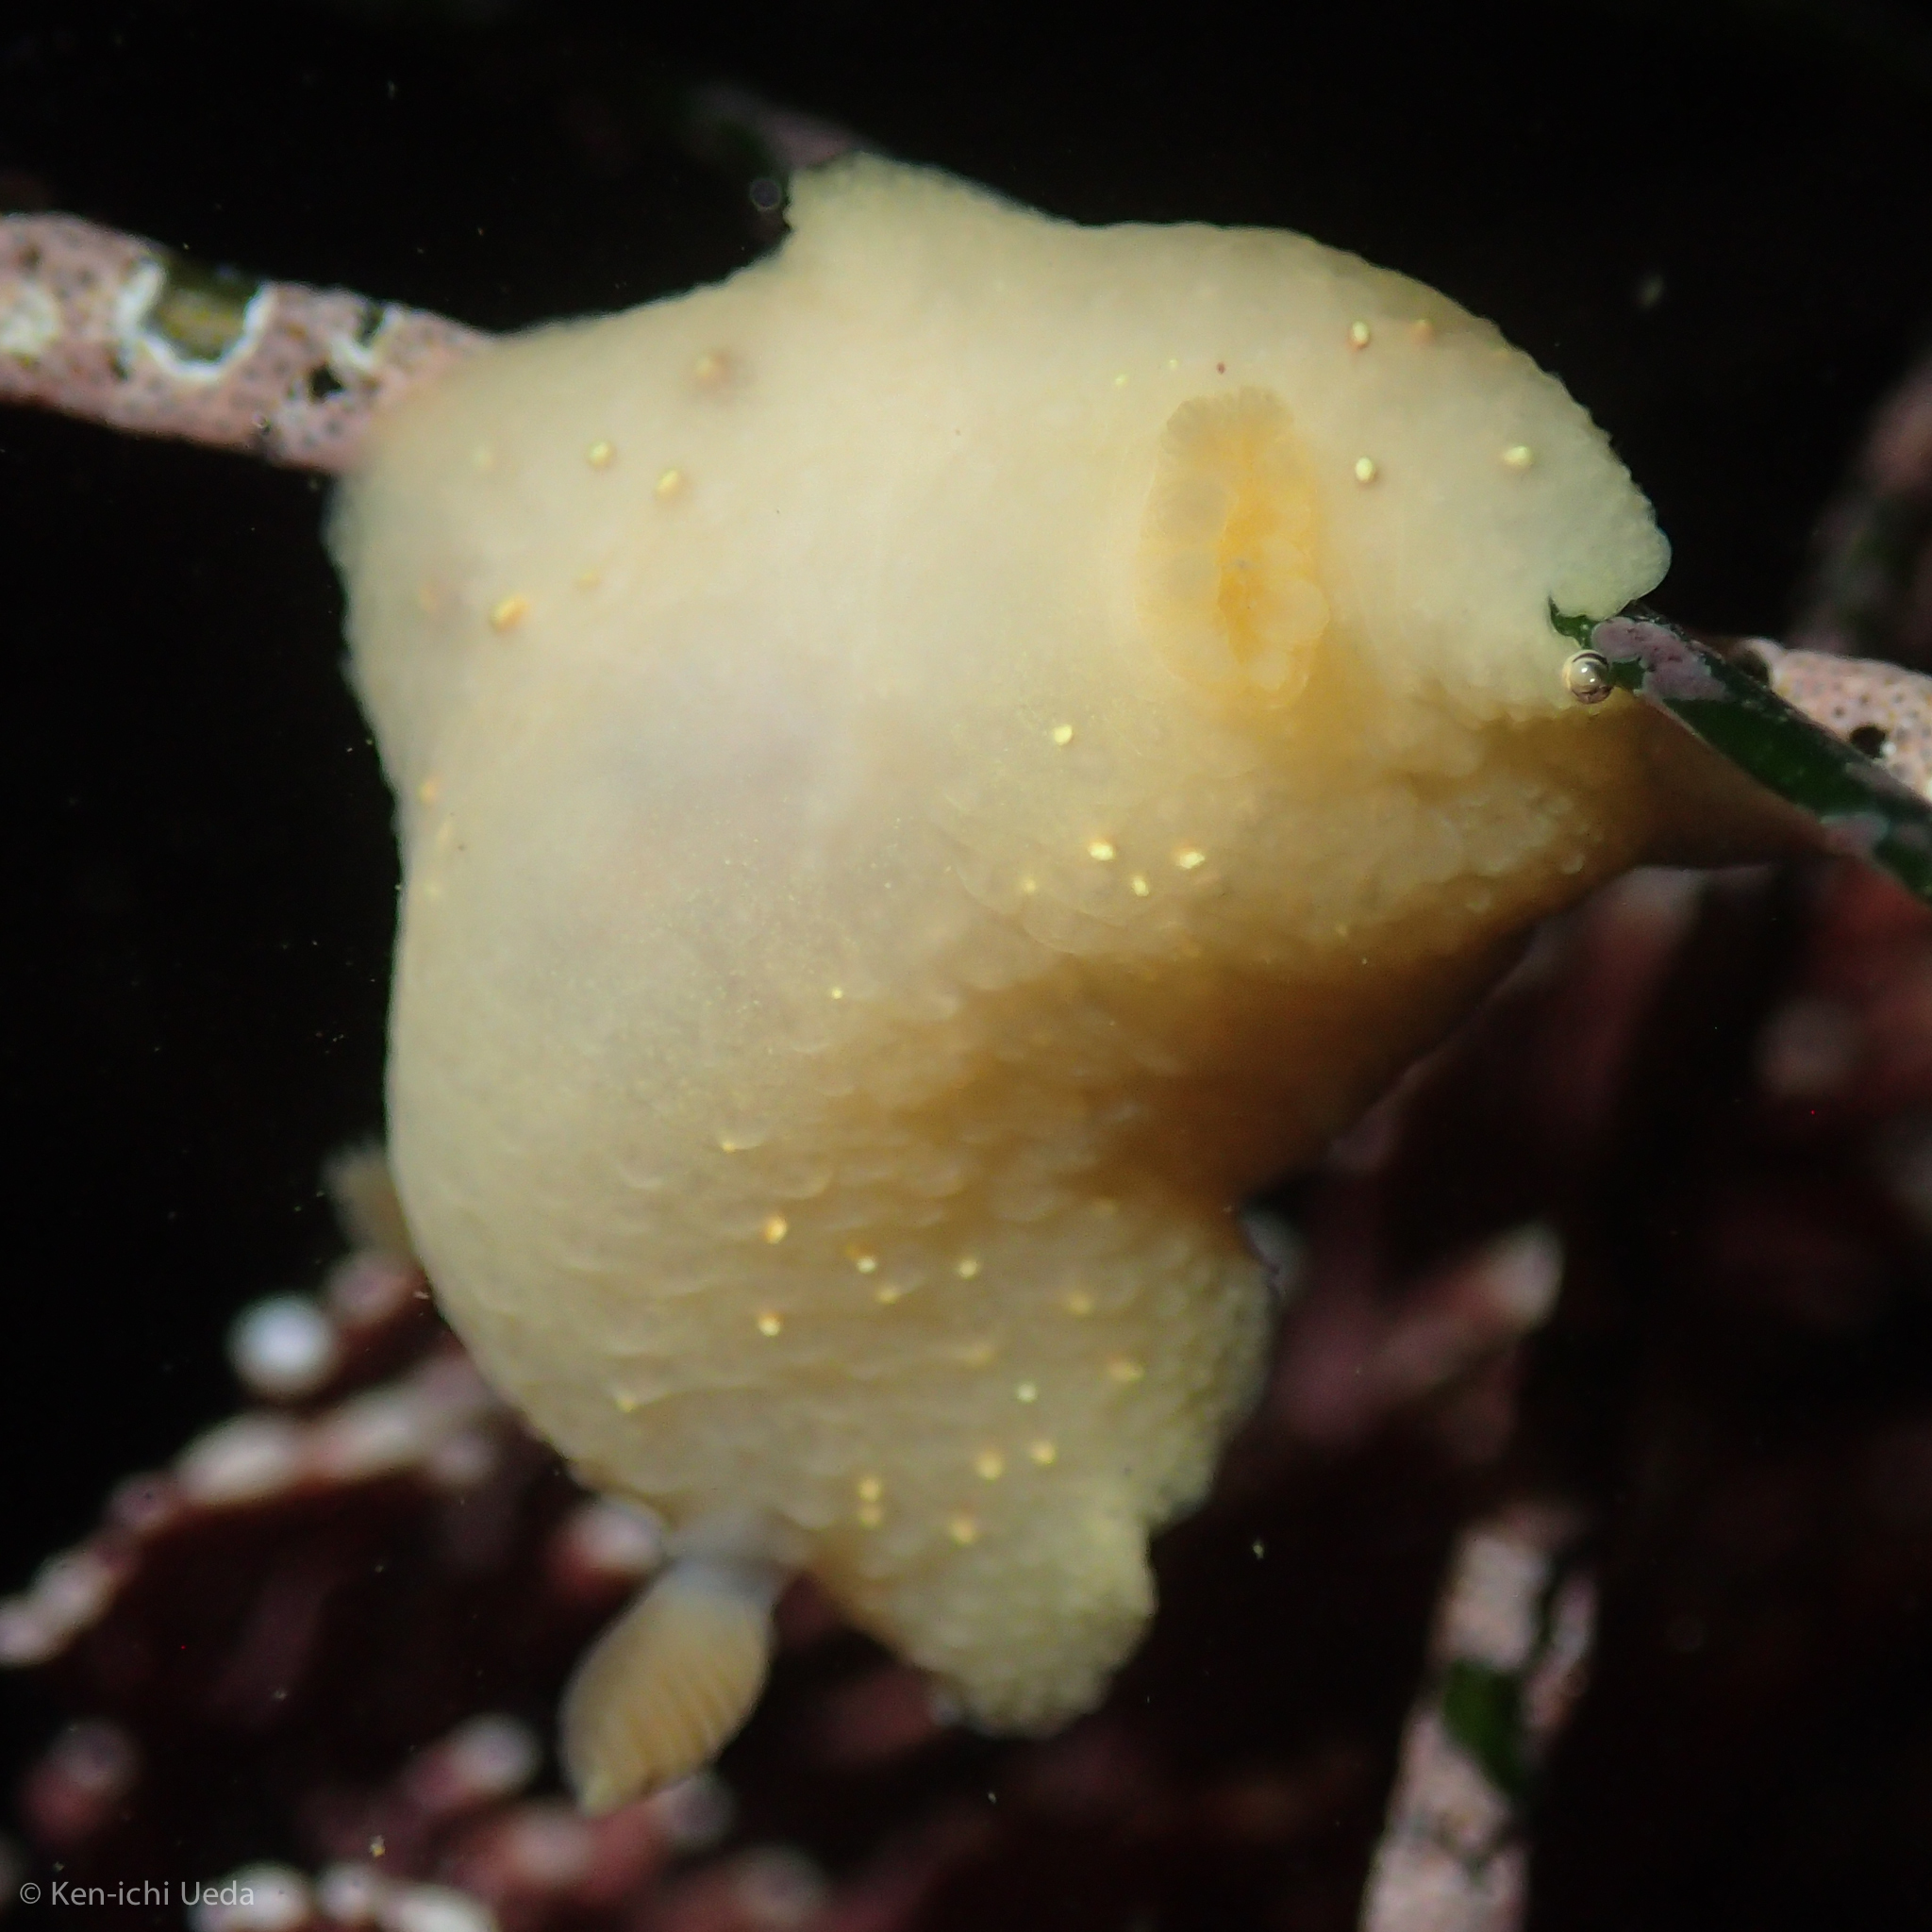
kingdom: Animalia
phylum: Mollusca
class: Gastropoda
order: Nudibranchia
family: Cadlinidae
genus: Cadlina
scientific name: Cadlina modesta
